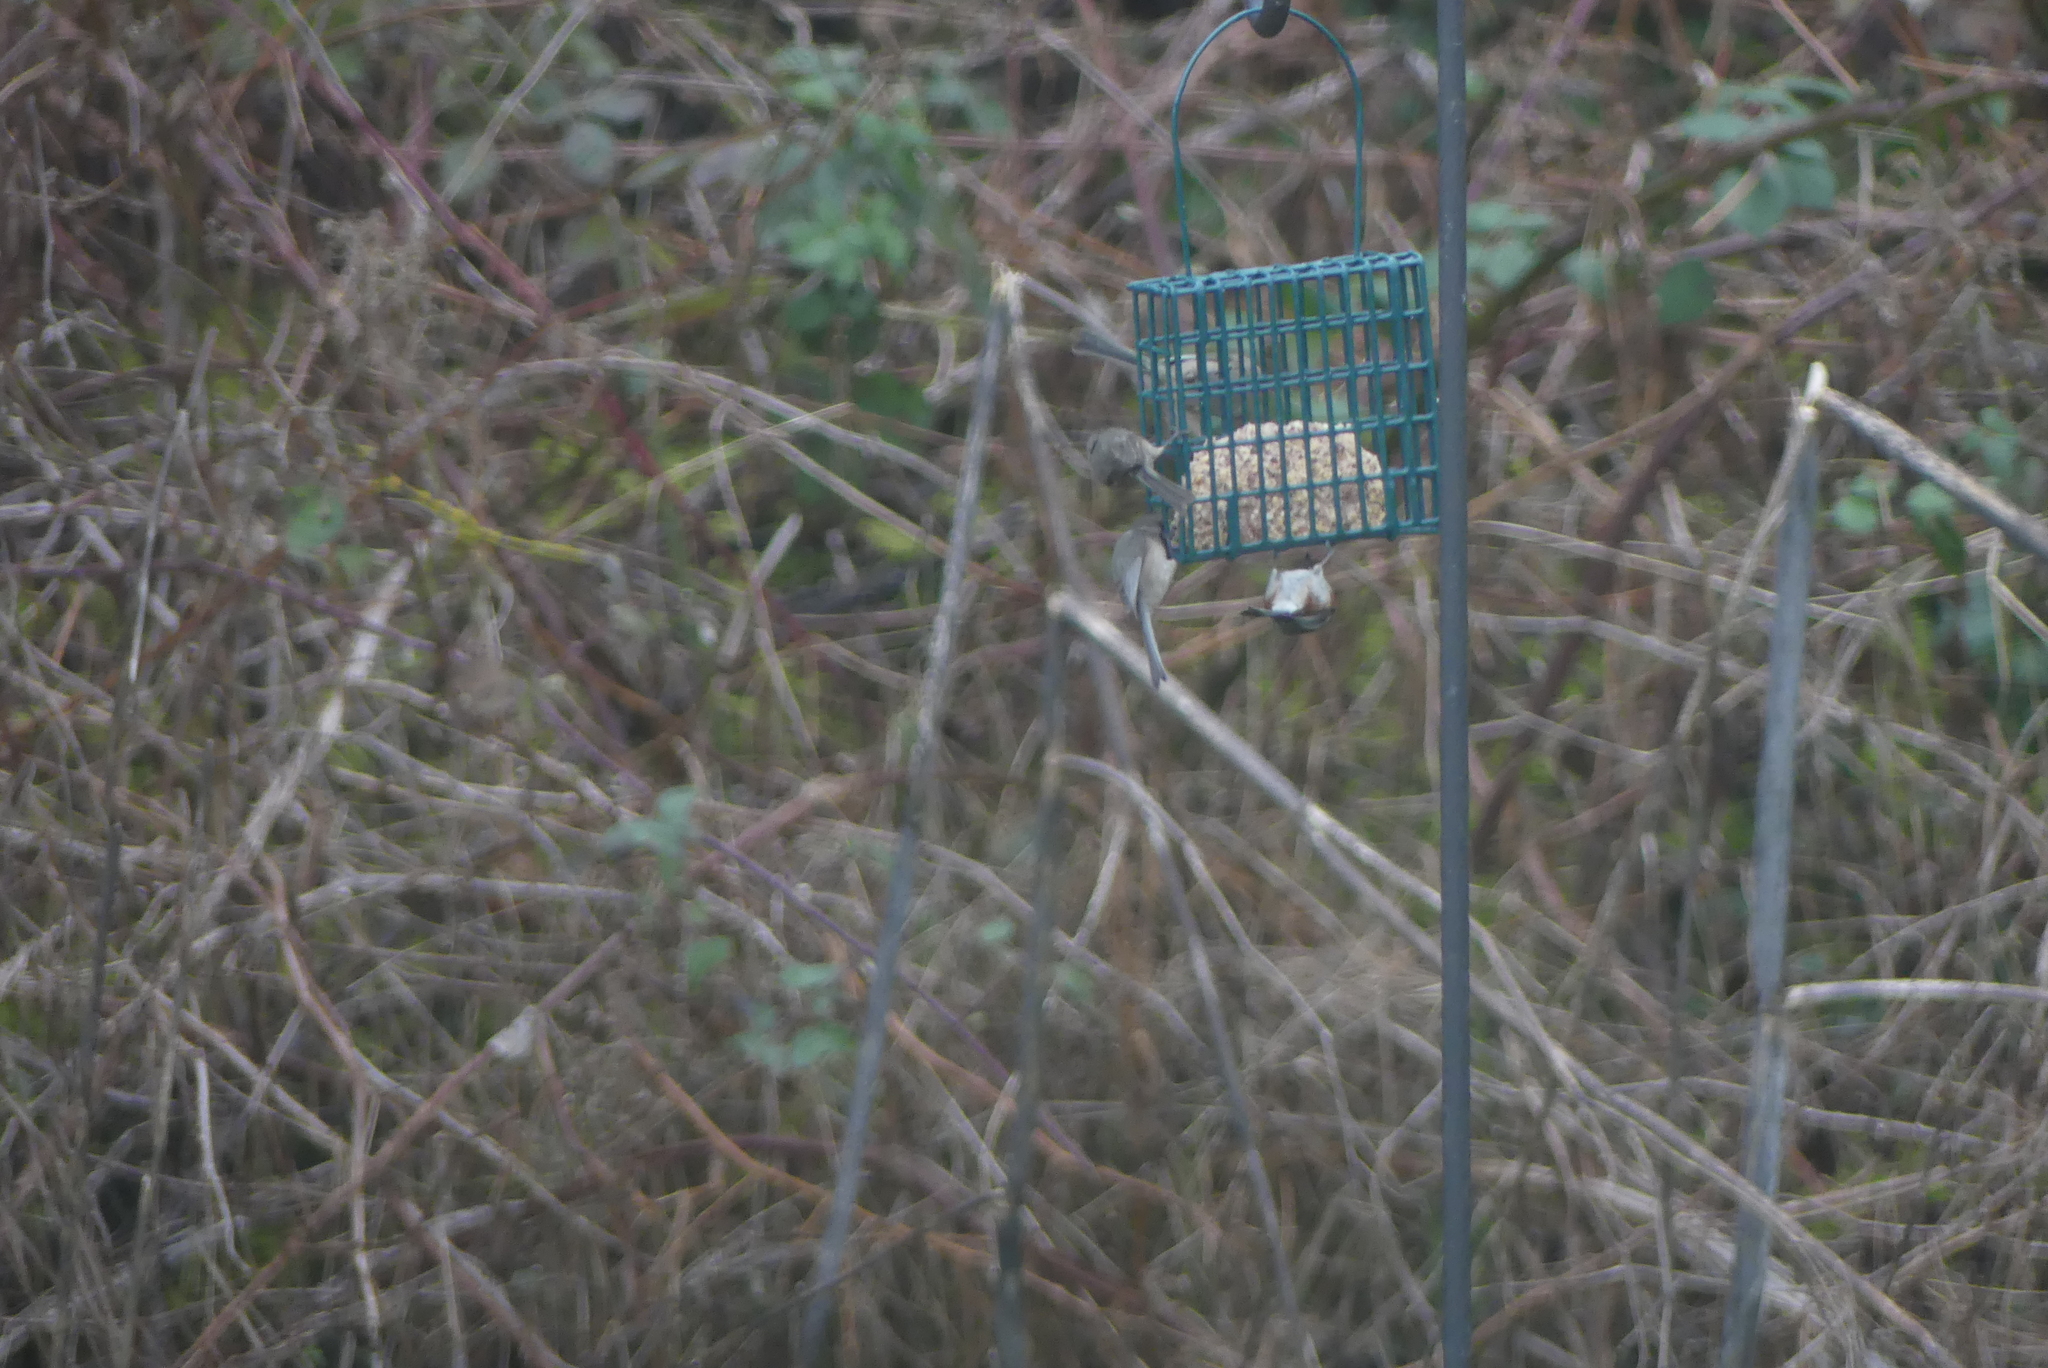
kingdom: Animalia
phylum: Chordata
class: Aves
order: Passeriformes
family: Aegithalidae
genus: Psaltriparus
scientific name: Psaltriparus minimus
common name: American bushtit
